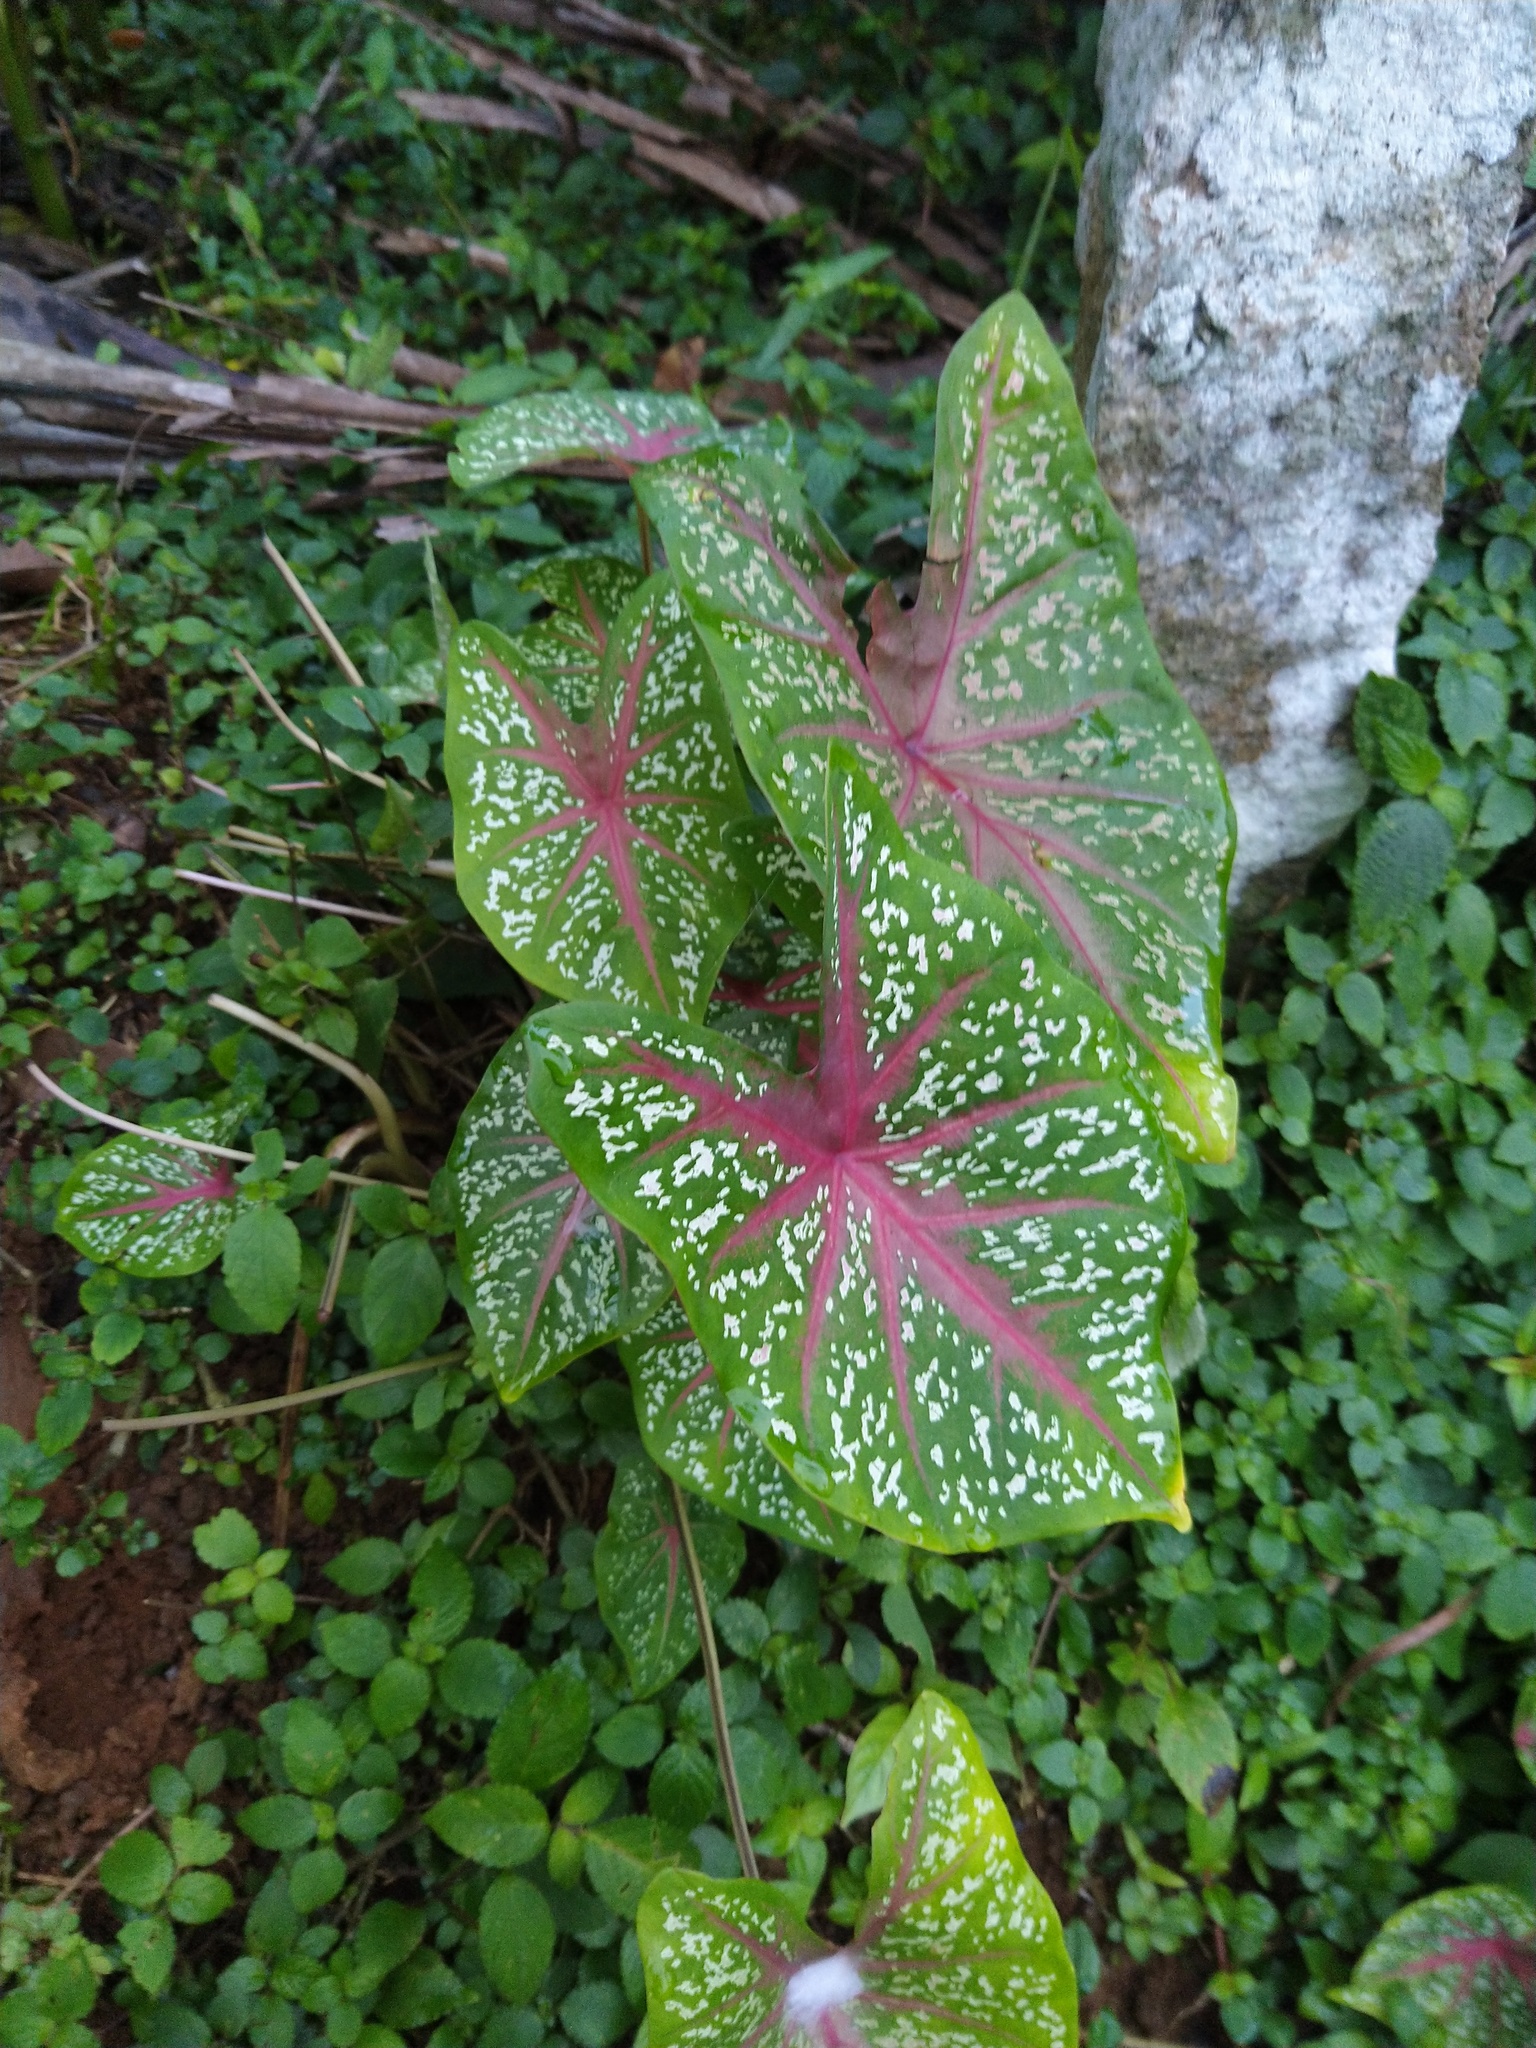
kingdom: Plantae
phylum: Tracheophyta
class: Liliopsida
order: Alismatales
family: Araceae
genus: Caladium
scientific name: Caladium bicolor
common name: Artist's pallet
